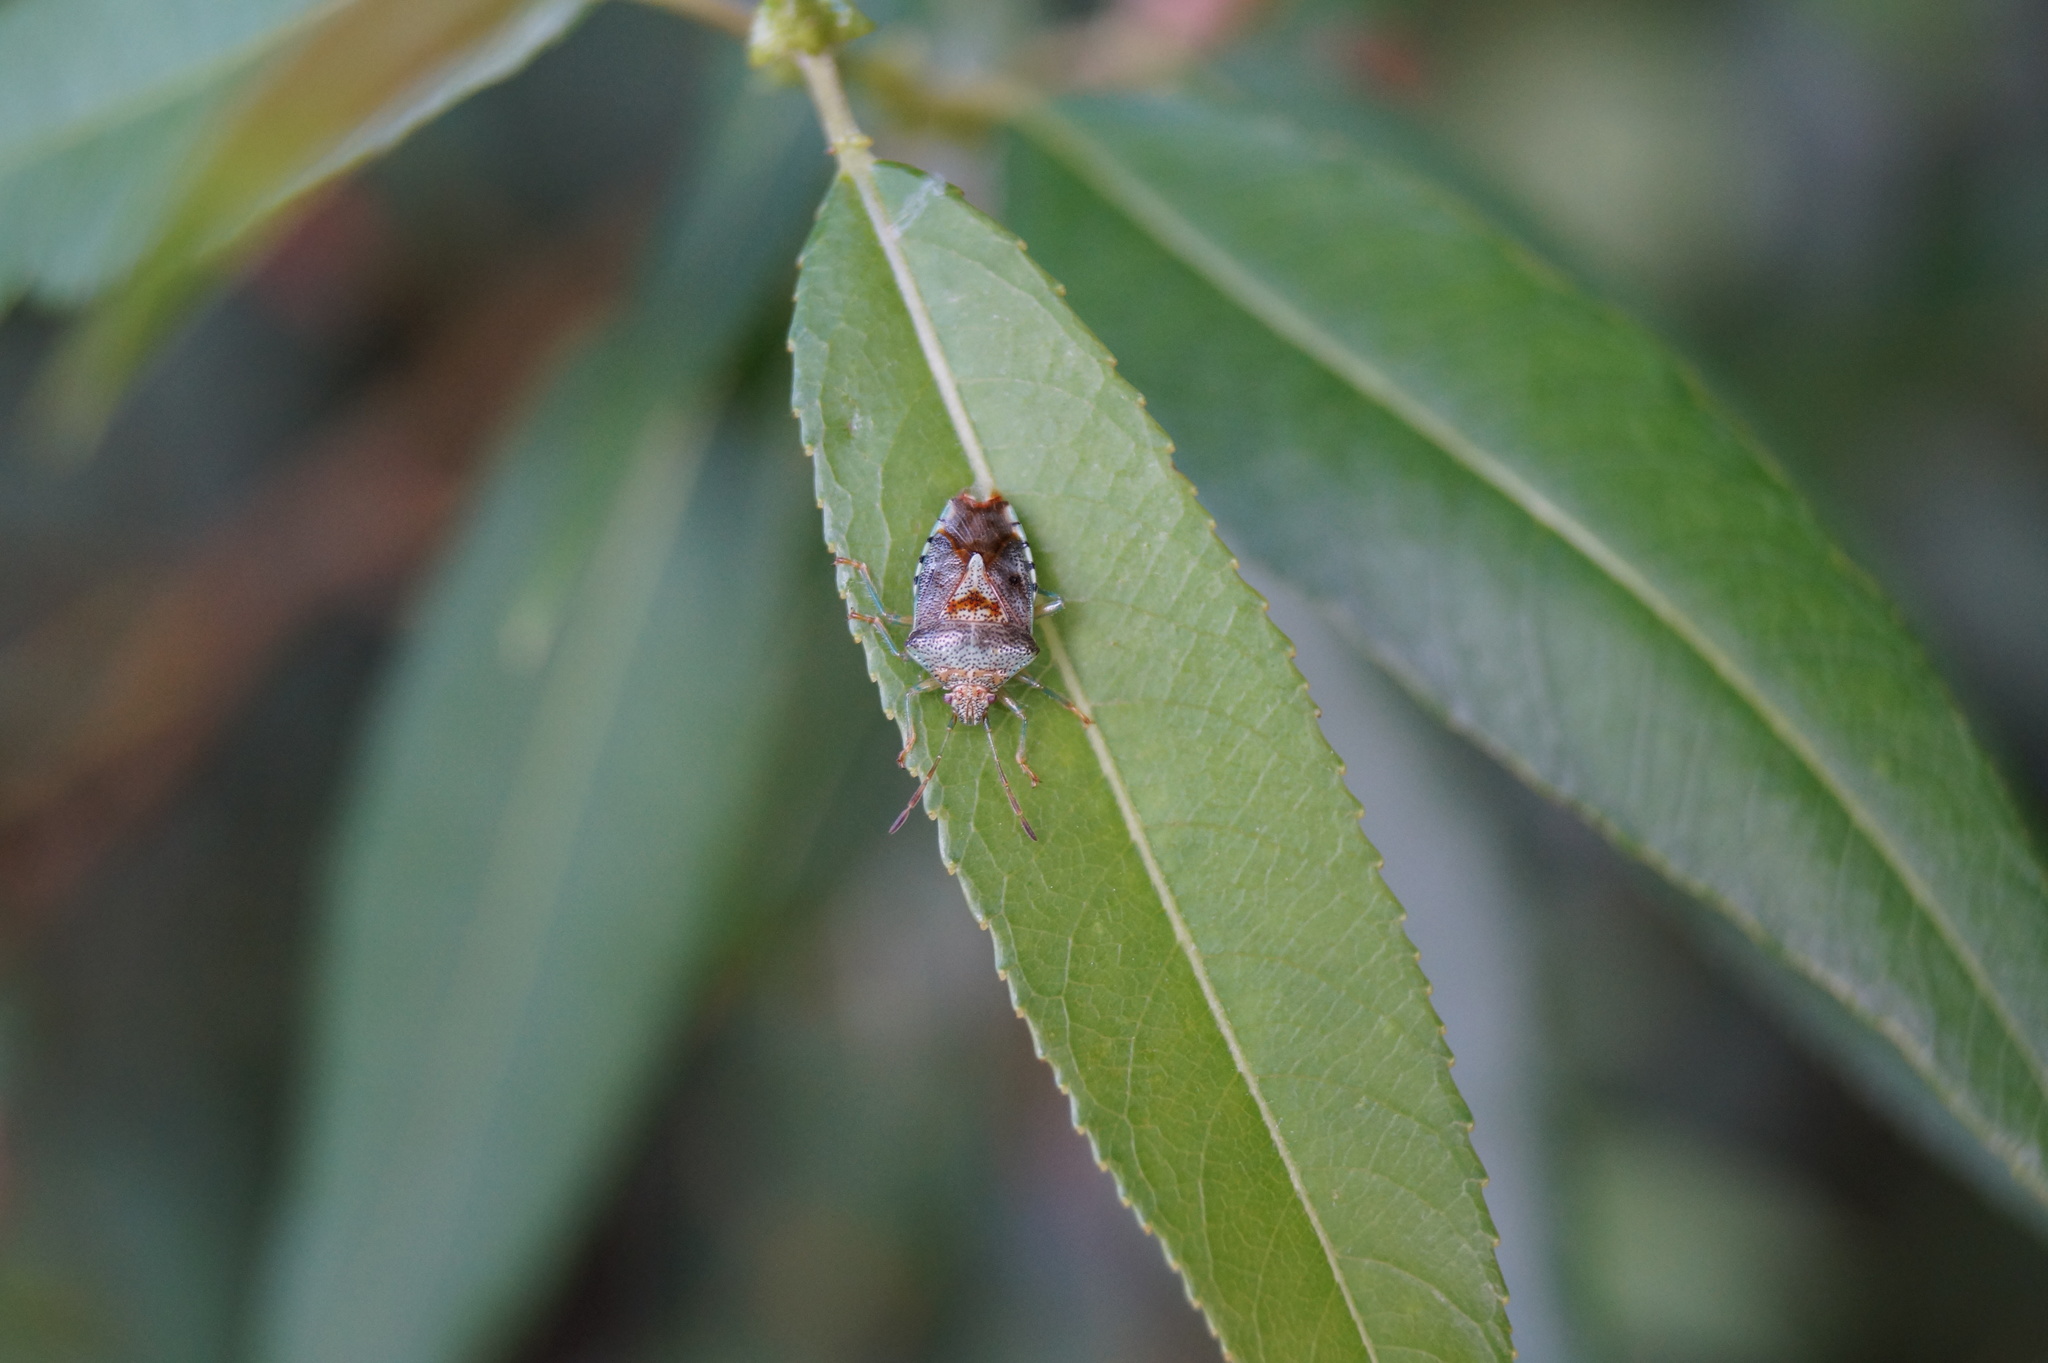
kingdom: Animalia
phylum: Arthropoda
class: Insecta
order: Hemiptera
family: Acanthosomatidae
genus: Elasmucha
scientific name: Elasmucha grisea
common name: Parent bug
